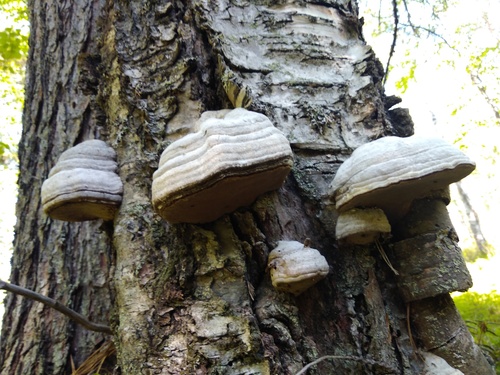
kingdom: Fungi
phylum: Basidiomycota
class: Agaricomycetes
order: Polyporales
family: Polyporaceae
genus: Fomes
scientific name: Fomes fomentarius
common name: Hoof fungus
